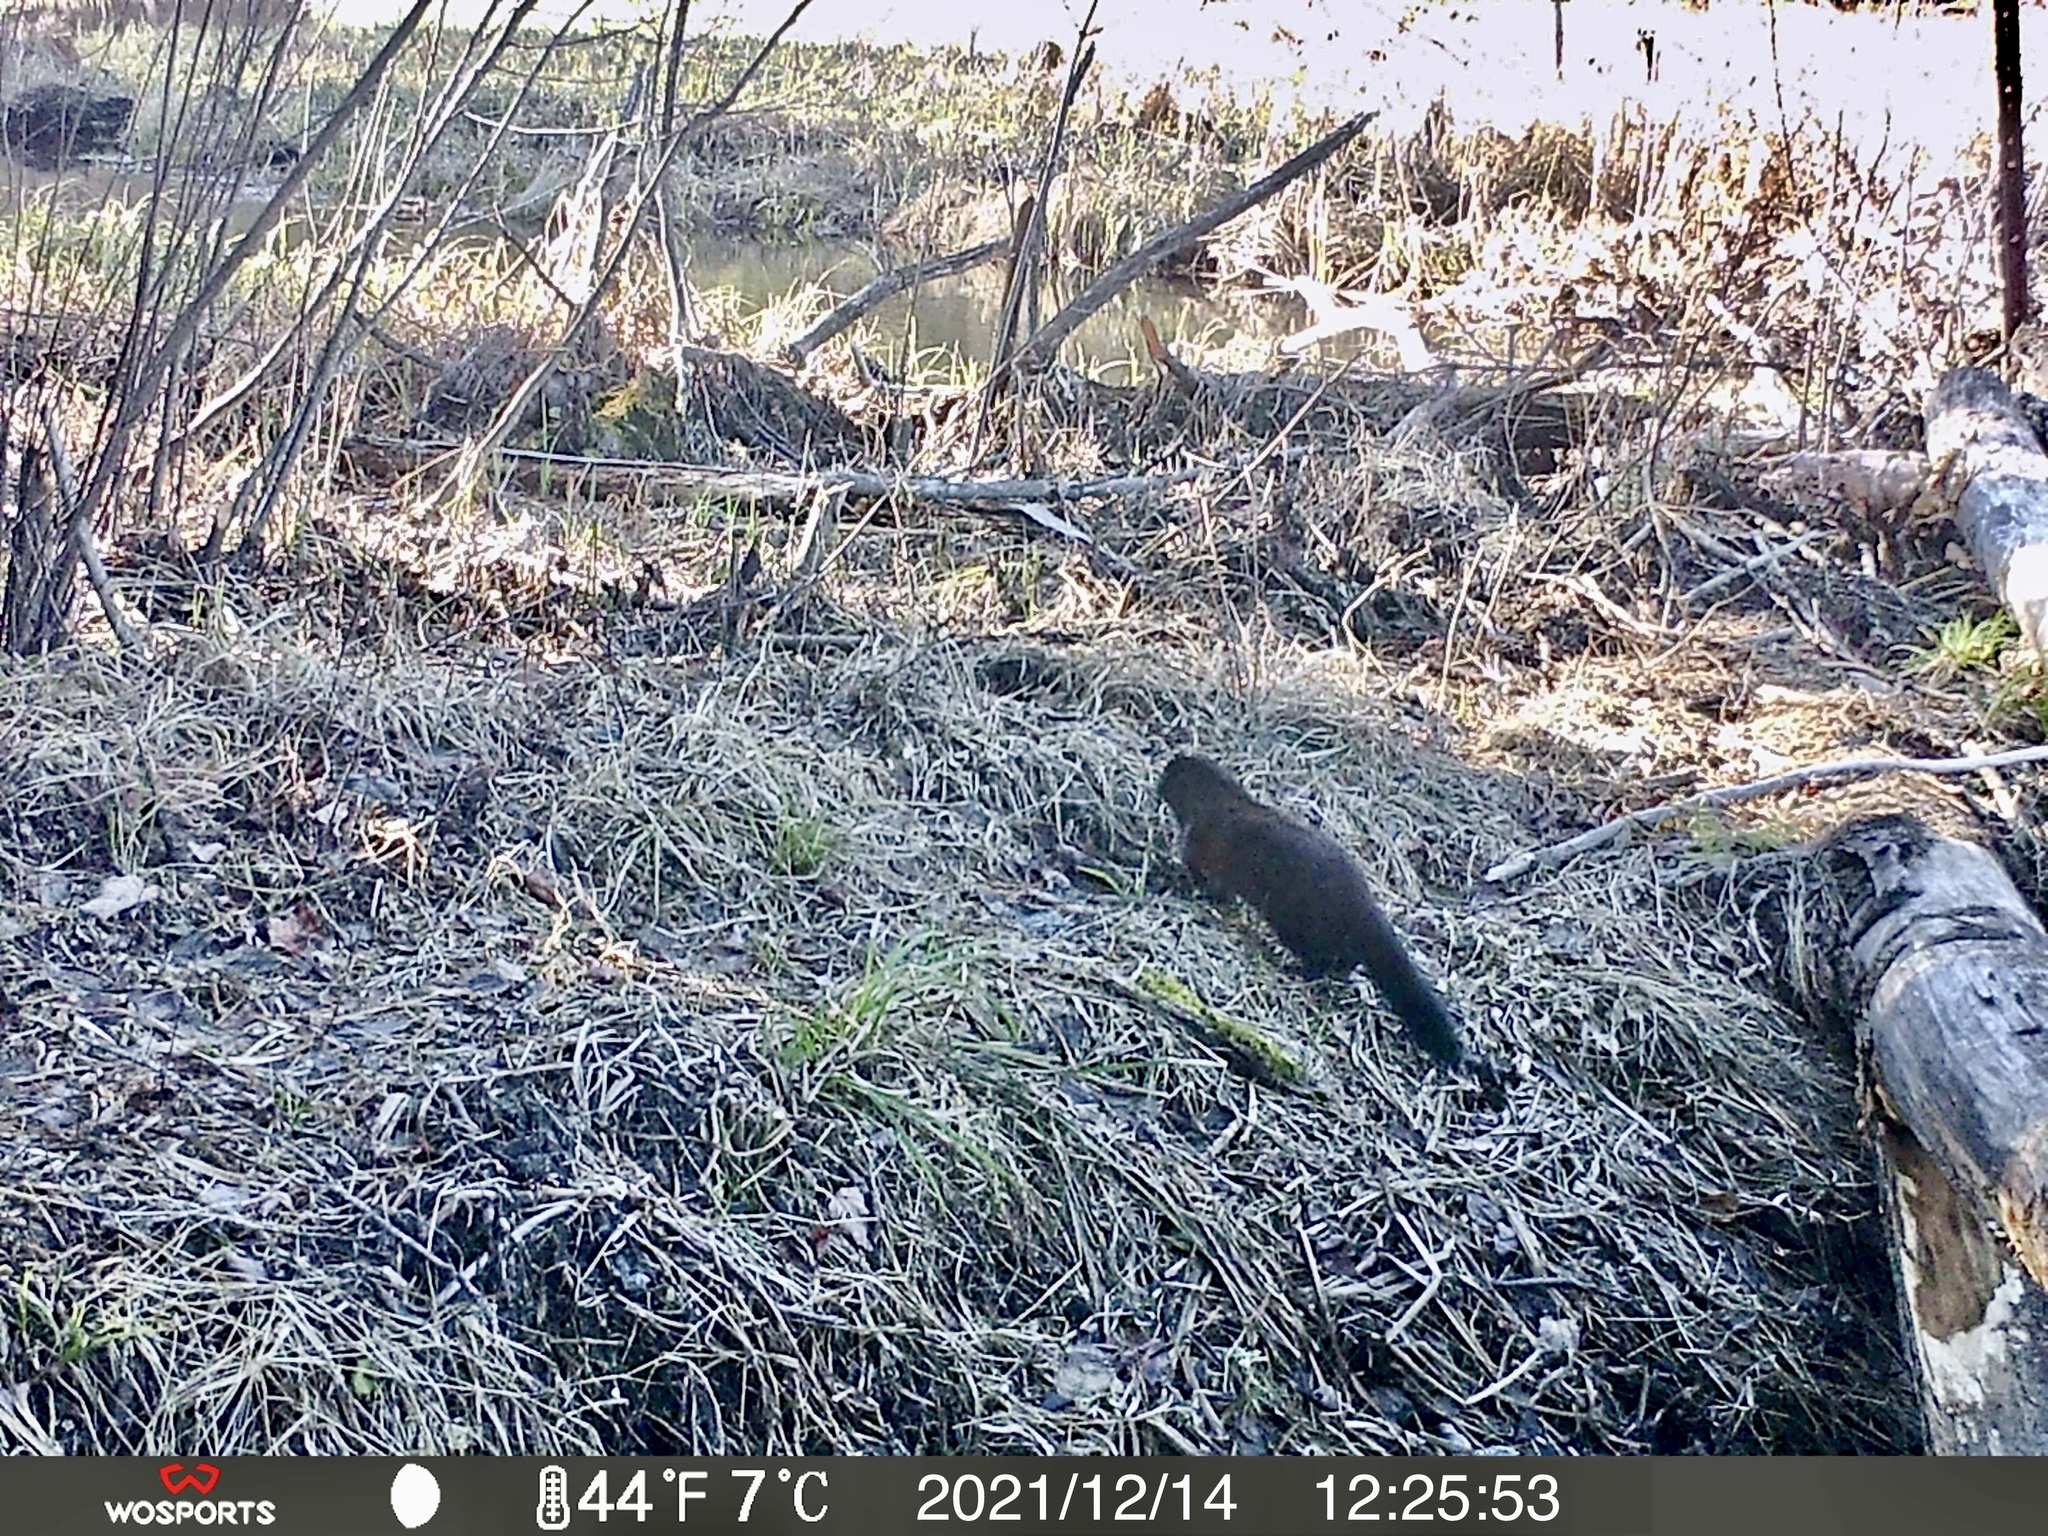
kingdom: Animalia
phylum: Chordata
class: Mammalia
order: Carnivora
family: Mustelidae
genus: Mustela
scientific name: Mustela
